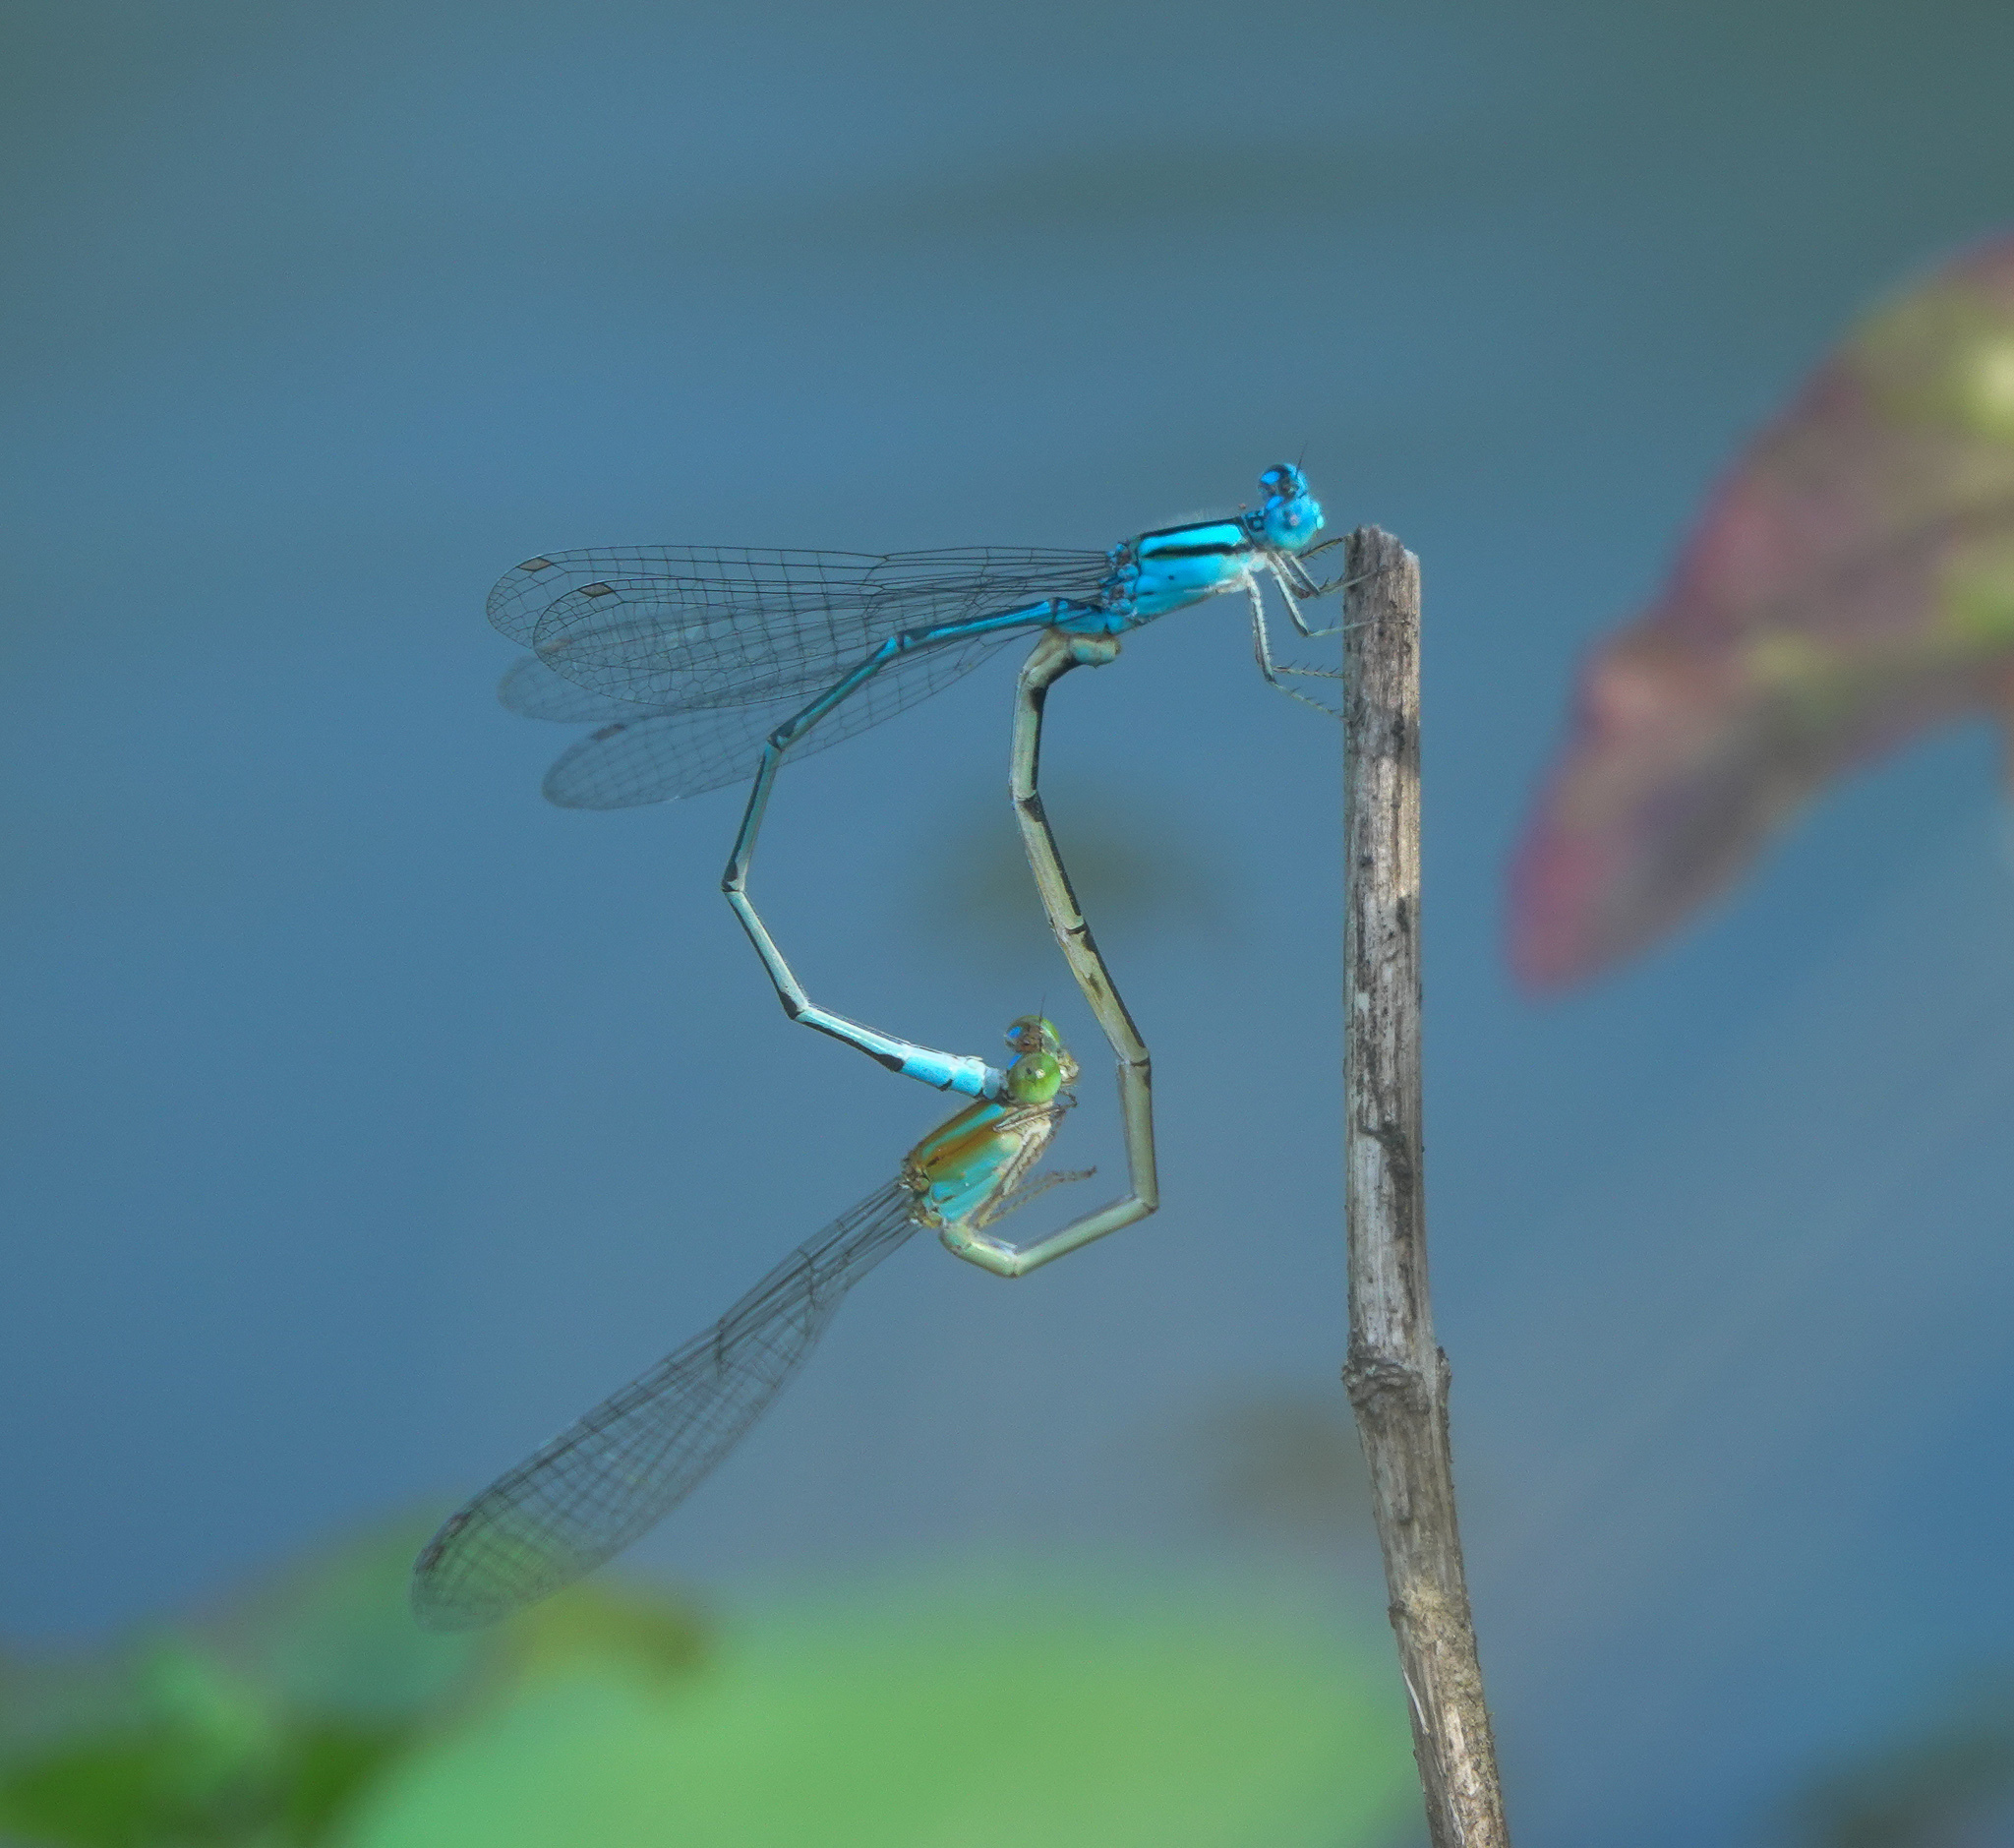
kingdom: Animalia
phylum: Arthropoda
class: Insecta
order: Odonata
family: Coenagrionidae
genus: Pseudagrion
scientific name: Pseudagrion microcephalum
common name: Blue riverdamsel
